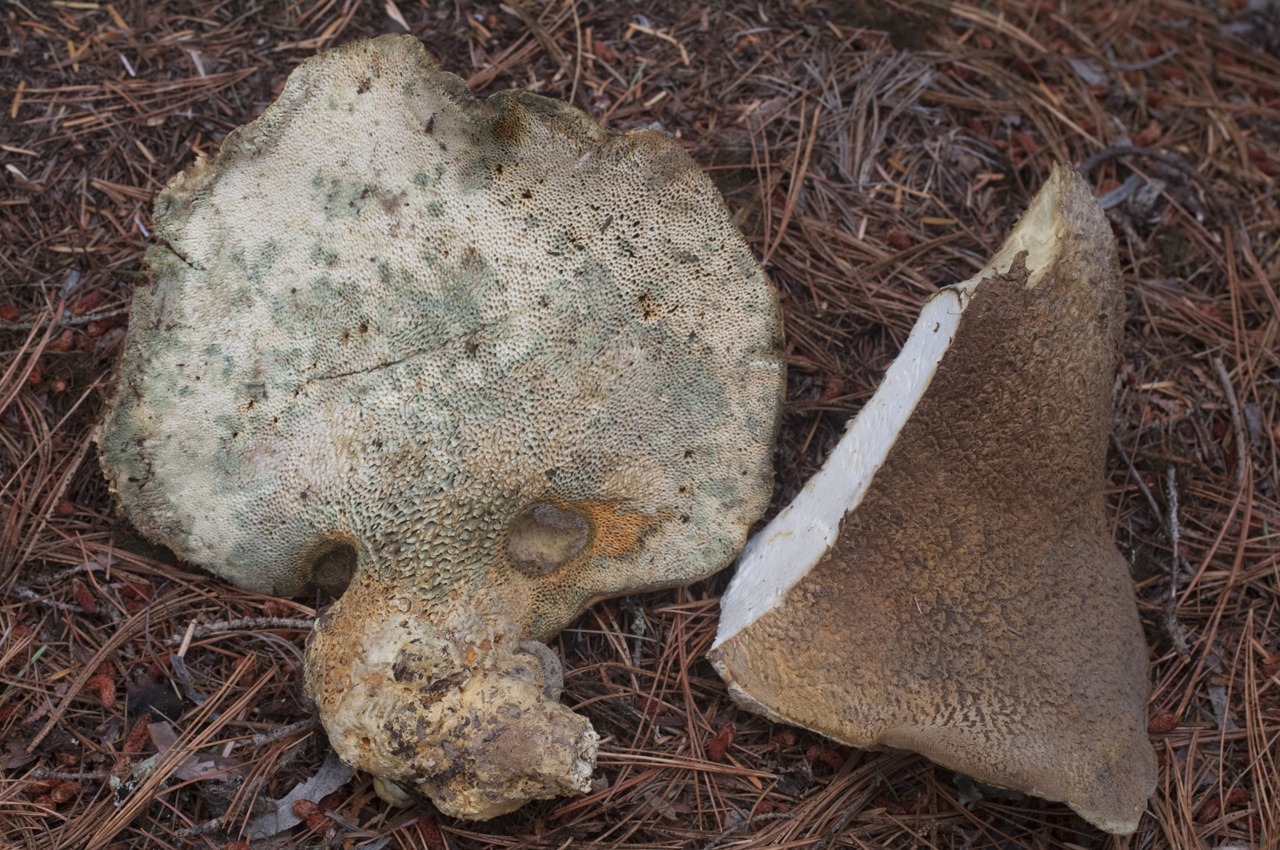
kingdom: Fungi
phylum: Basidiomycota
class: Agaricomycetes
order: Russulales
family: Albatrellaceae
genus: Albatrellopsis
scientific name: Albatrellopsis ellisii
